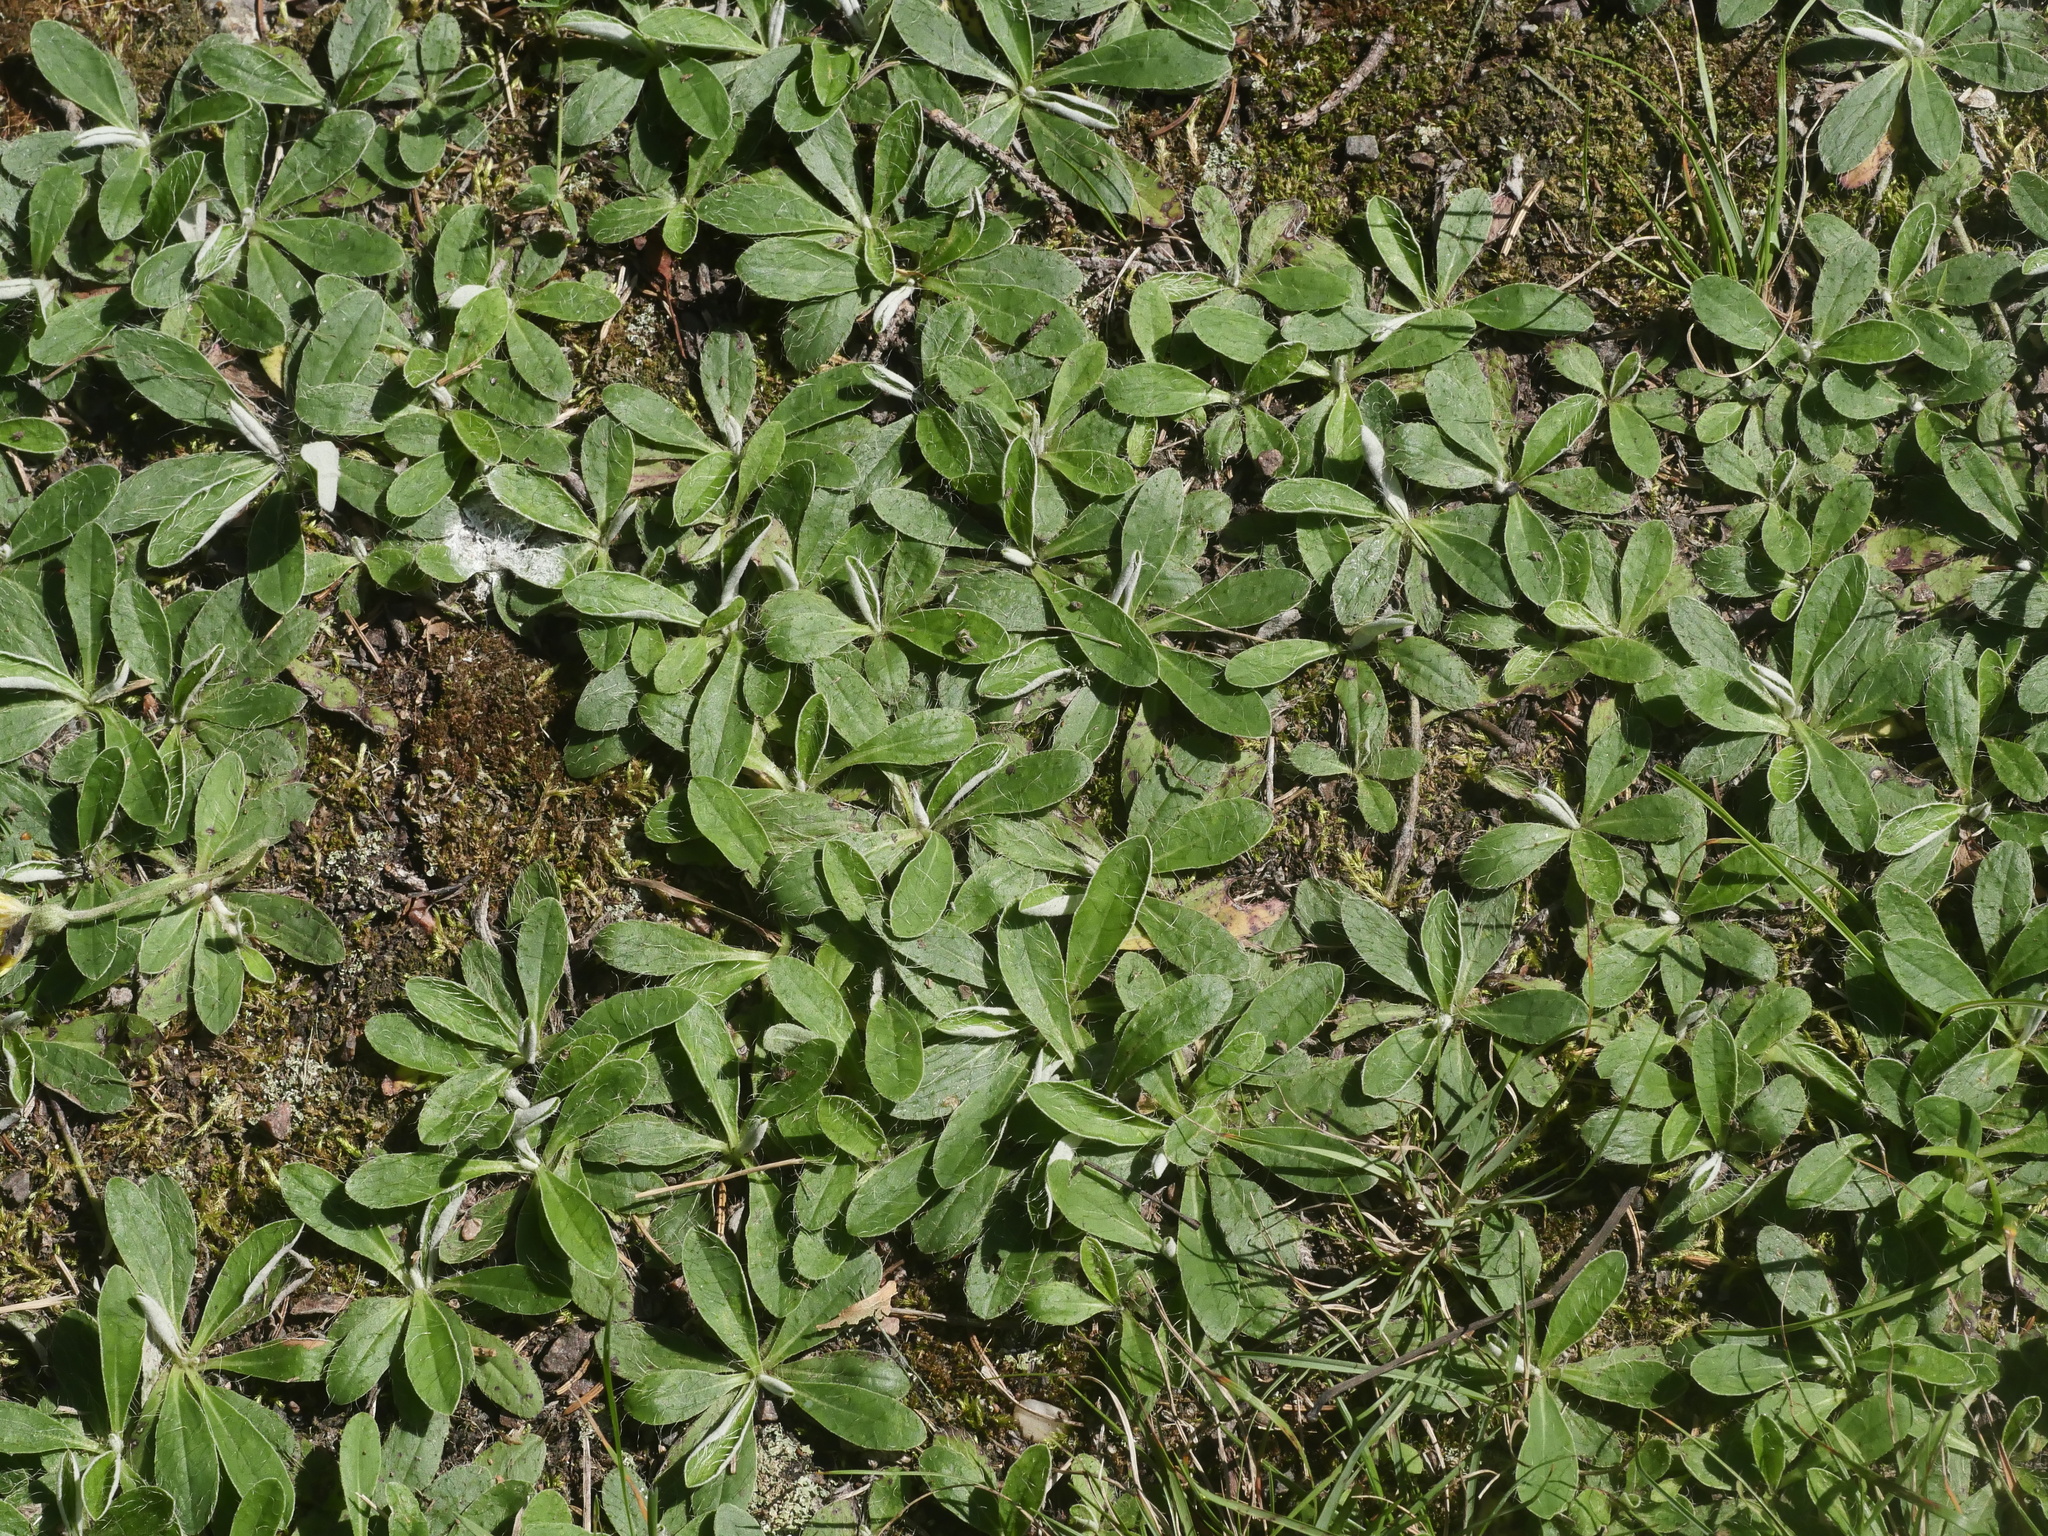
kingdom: Plantae
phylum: Tracheophyta
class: Magnoliopsida
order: Asterales
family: Asteraceae
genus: Pilosella
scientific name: Pilosella officinarum
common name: Mouse-ear hawkweed
